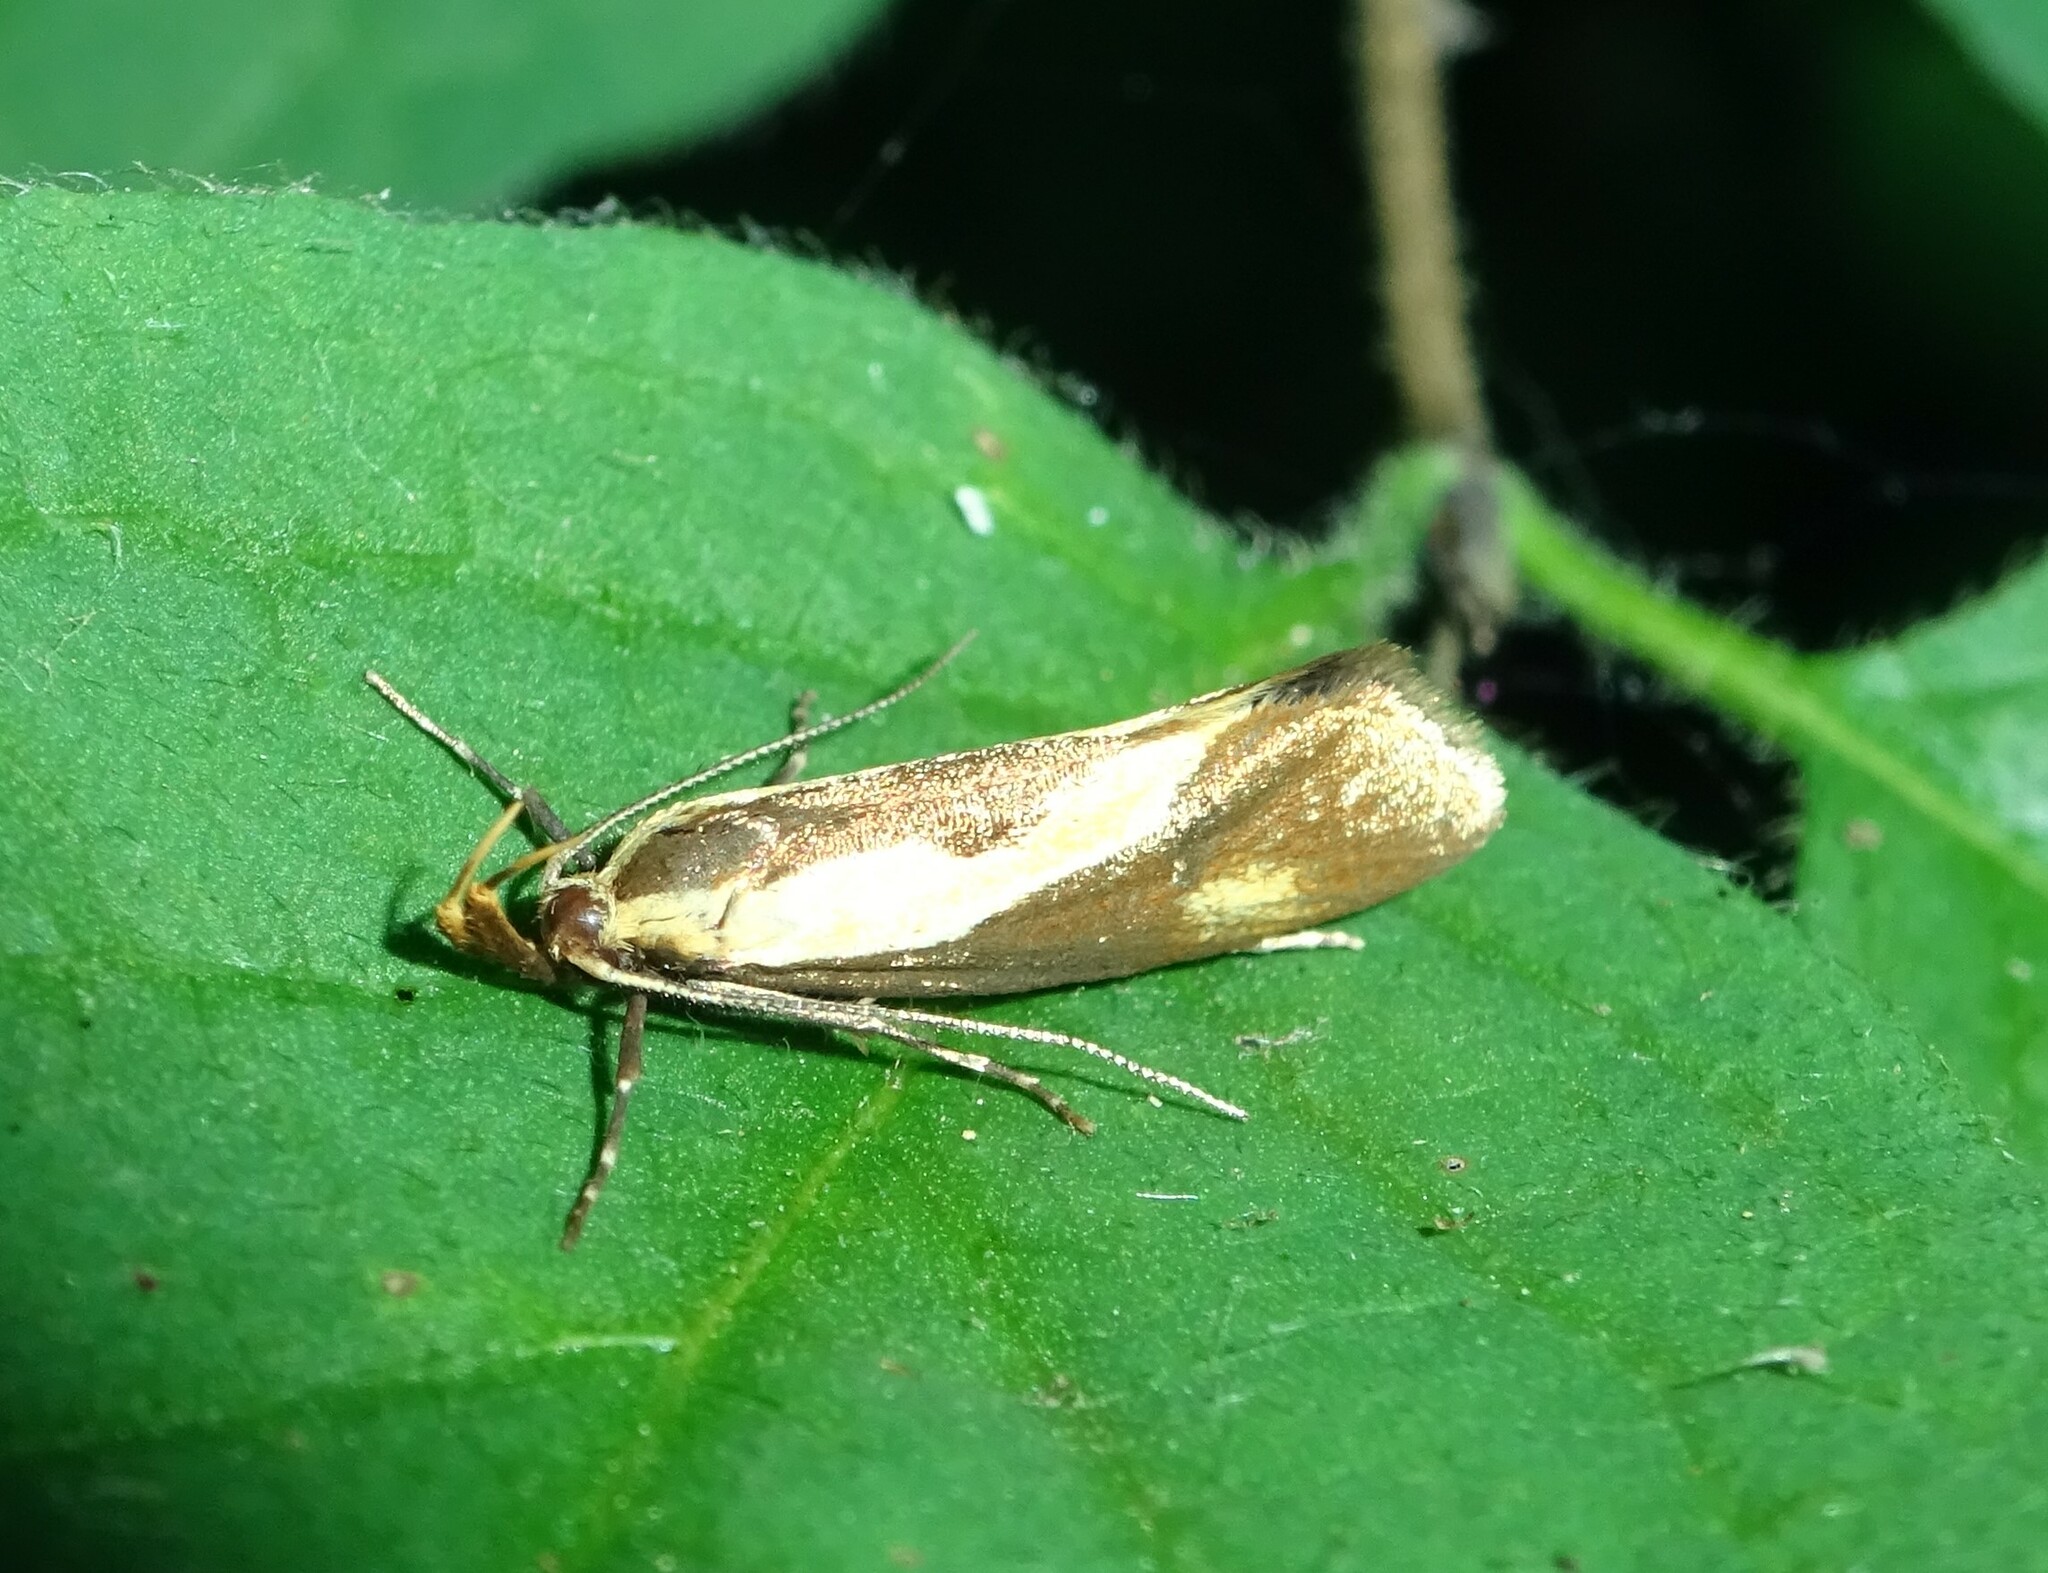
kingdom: Animalia
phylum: Arthropoda
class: Insecta
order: Lepidoptera
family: Oecophoridae
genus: Harpella
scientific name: Harpella forficella
